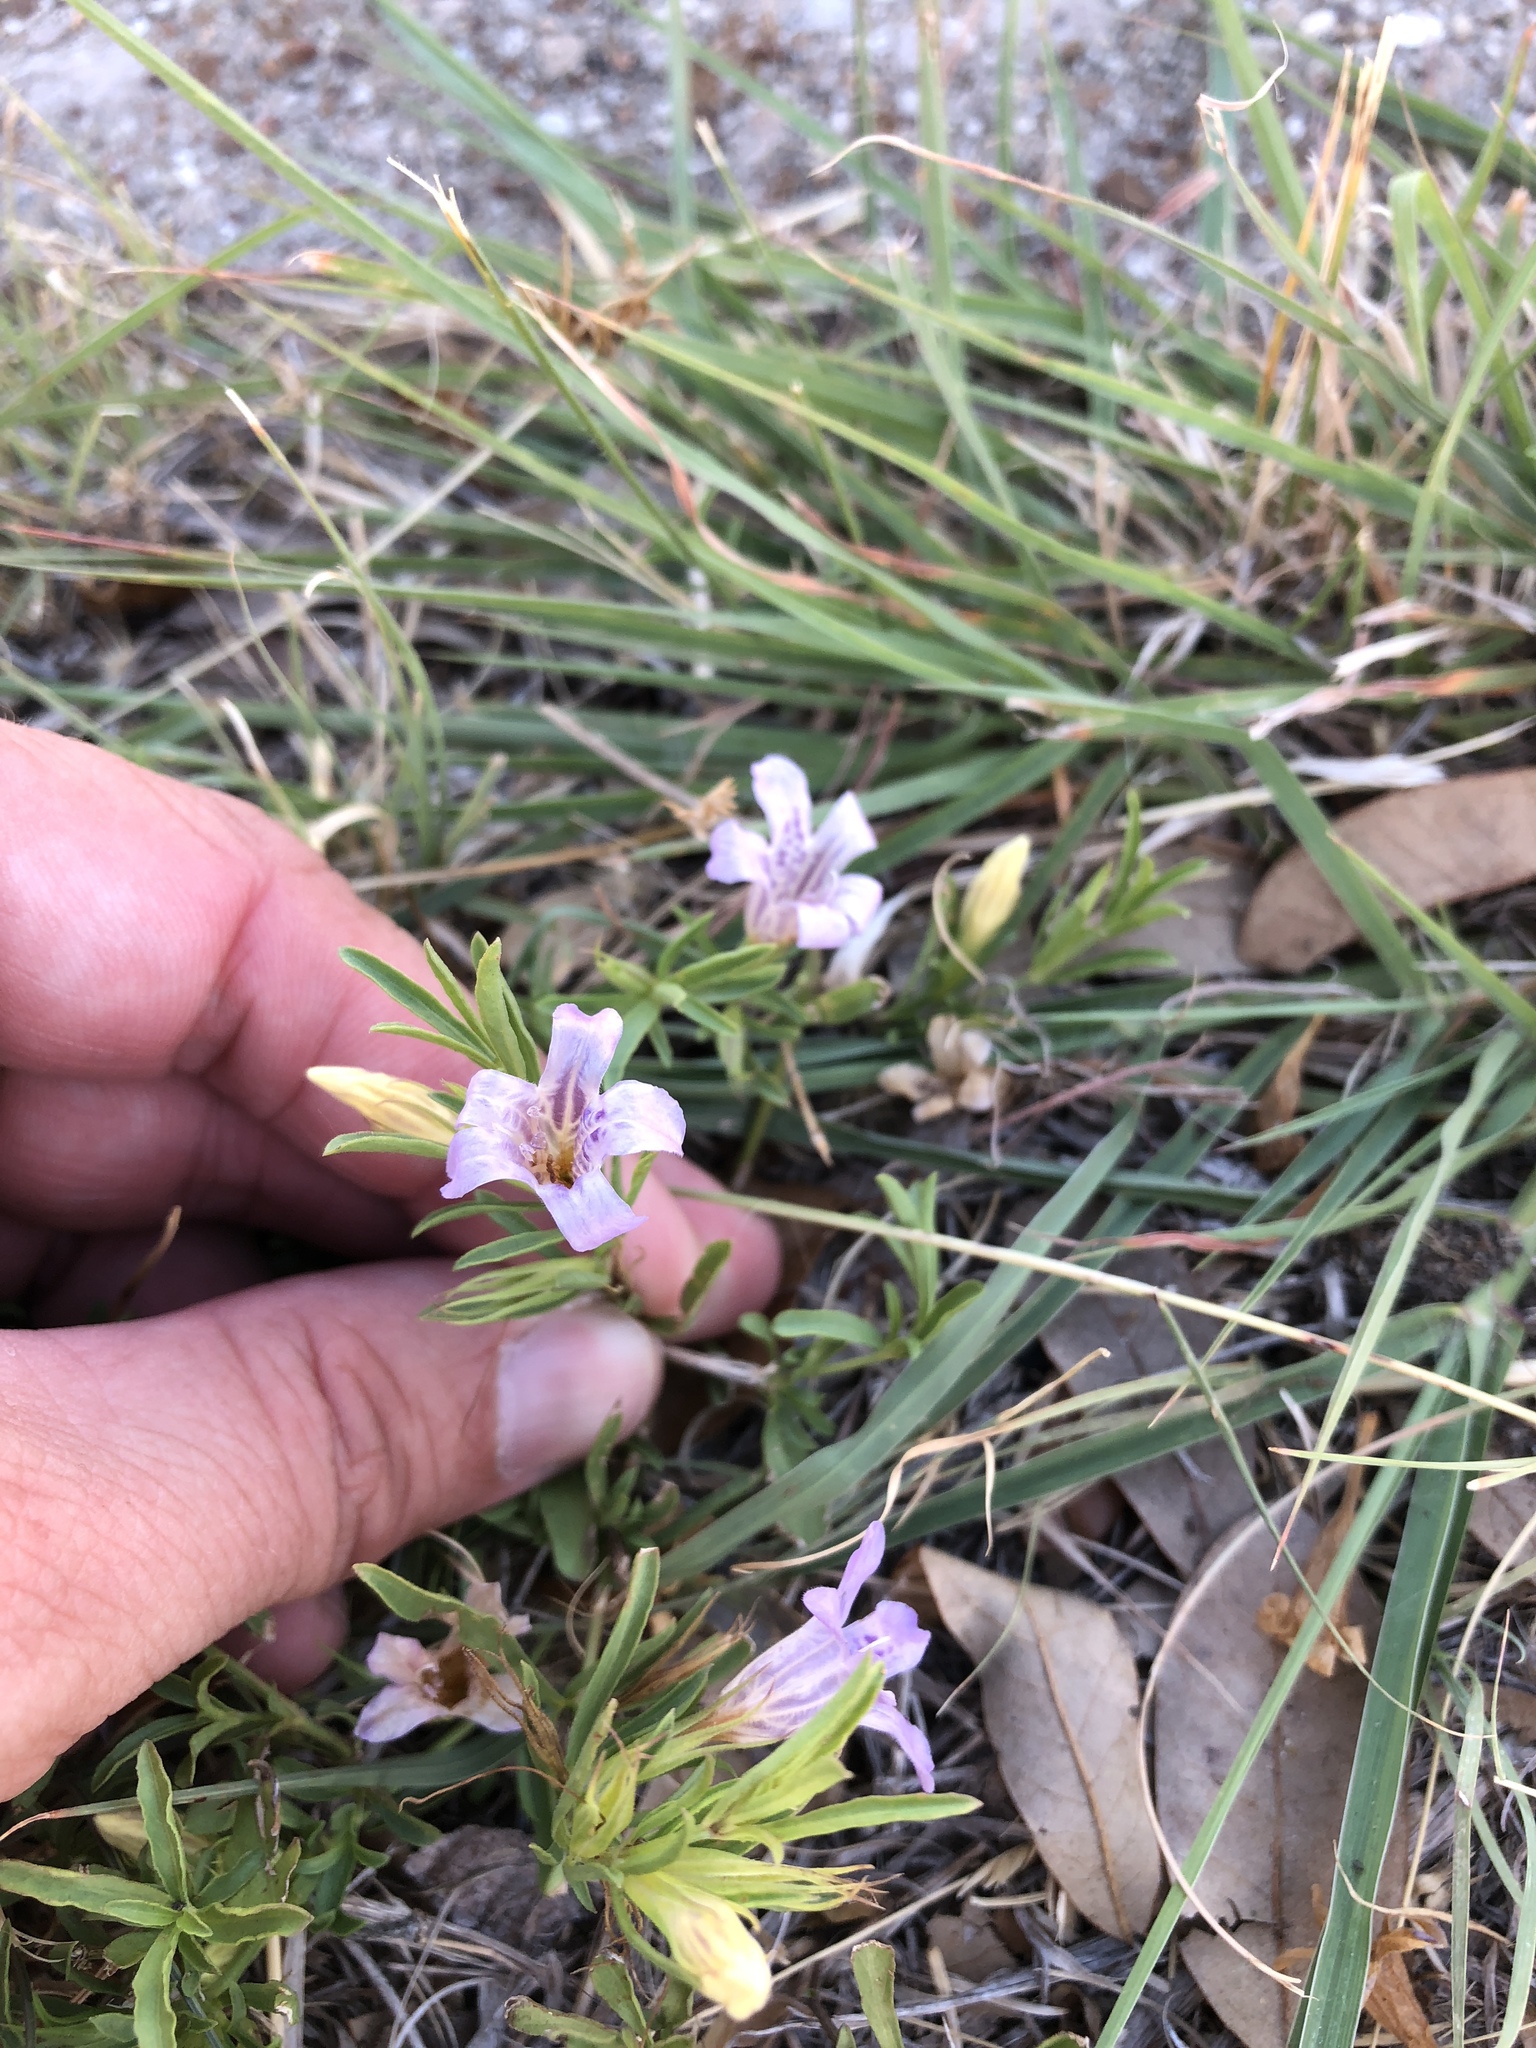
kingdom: Plantae
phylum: Tracheophyta
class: Magnoliopsida
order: Lamiales
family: Acanthaceae
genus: Dyschoriste
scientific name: Dyschoriste linearis
